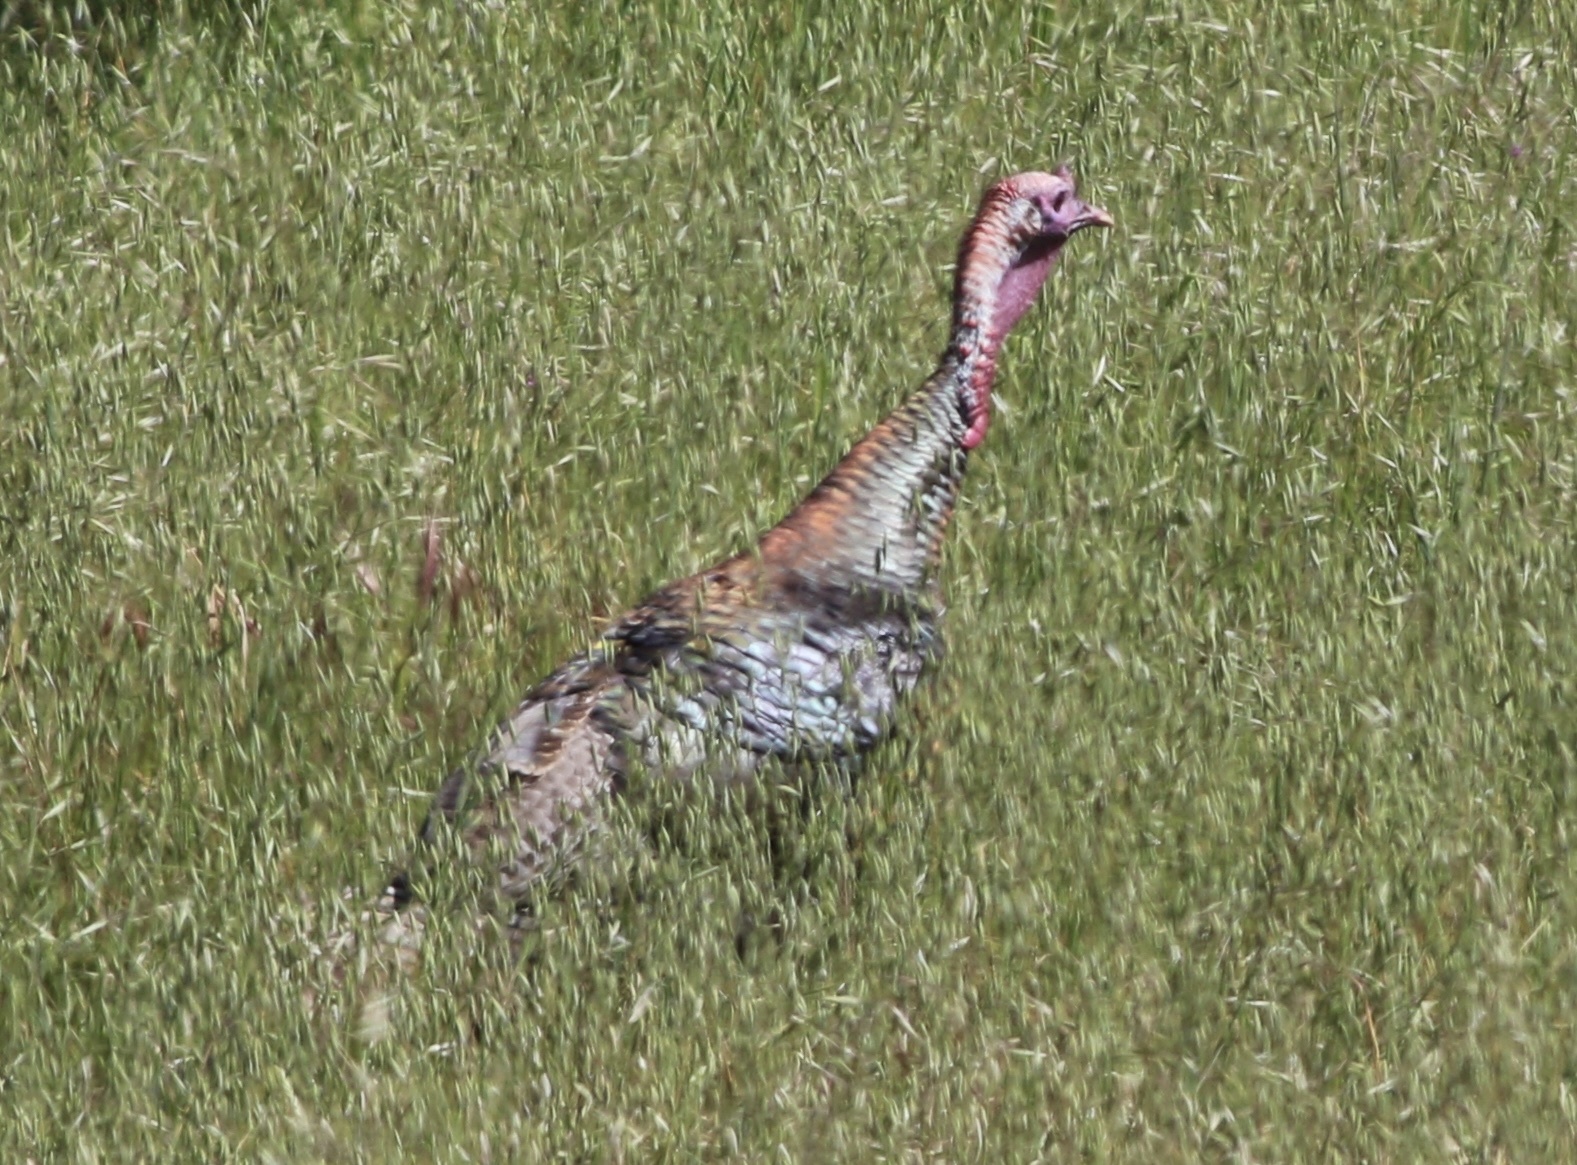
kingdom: Animalia
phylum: Chordata
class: Aves
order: Galliformes
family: Phasianidae
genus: Meleagris
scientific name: Meleagris gallopavo
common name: Wild turkey
